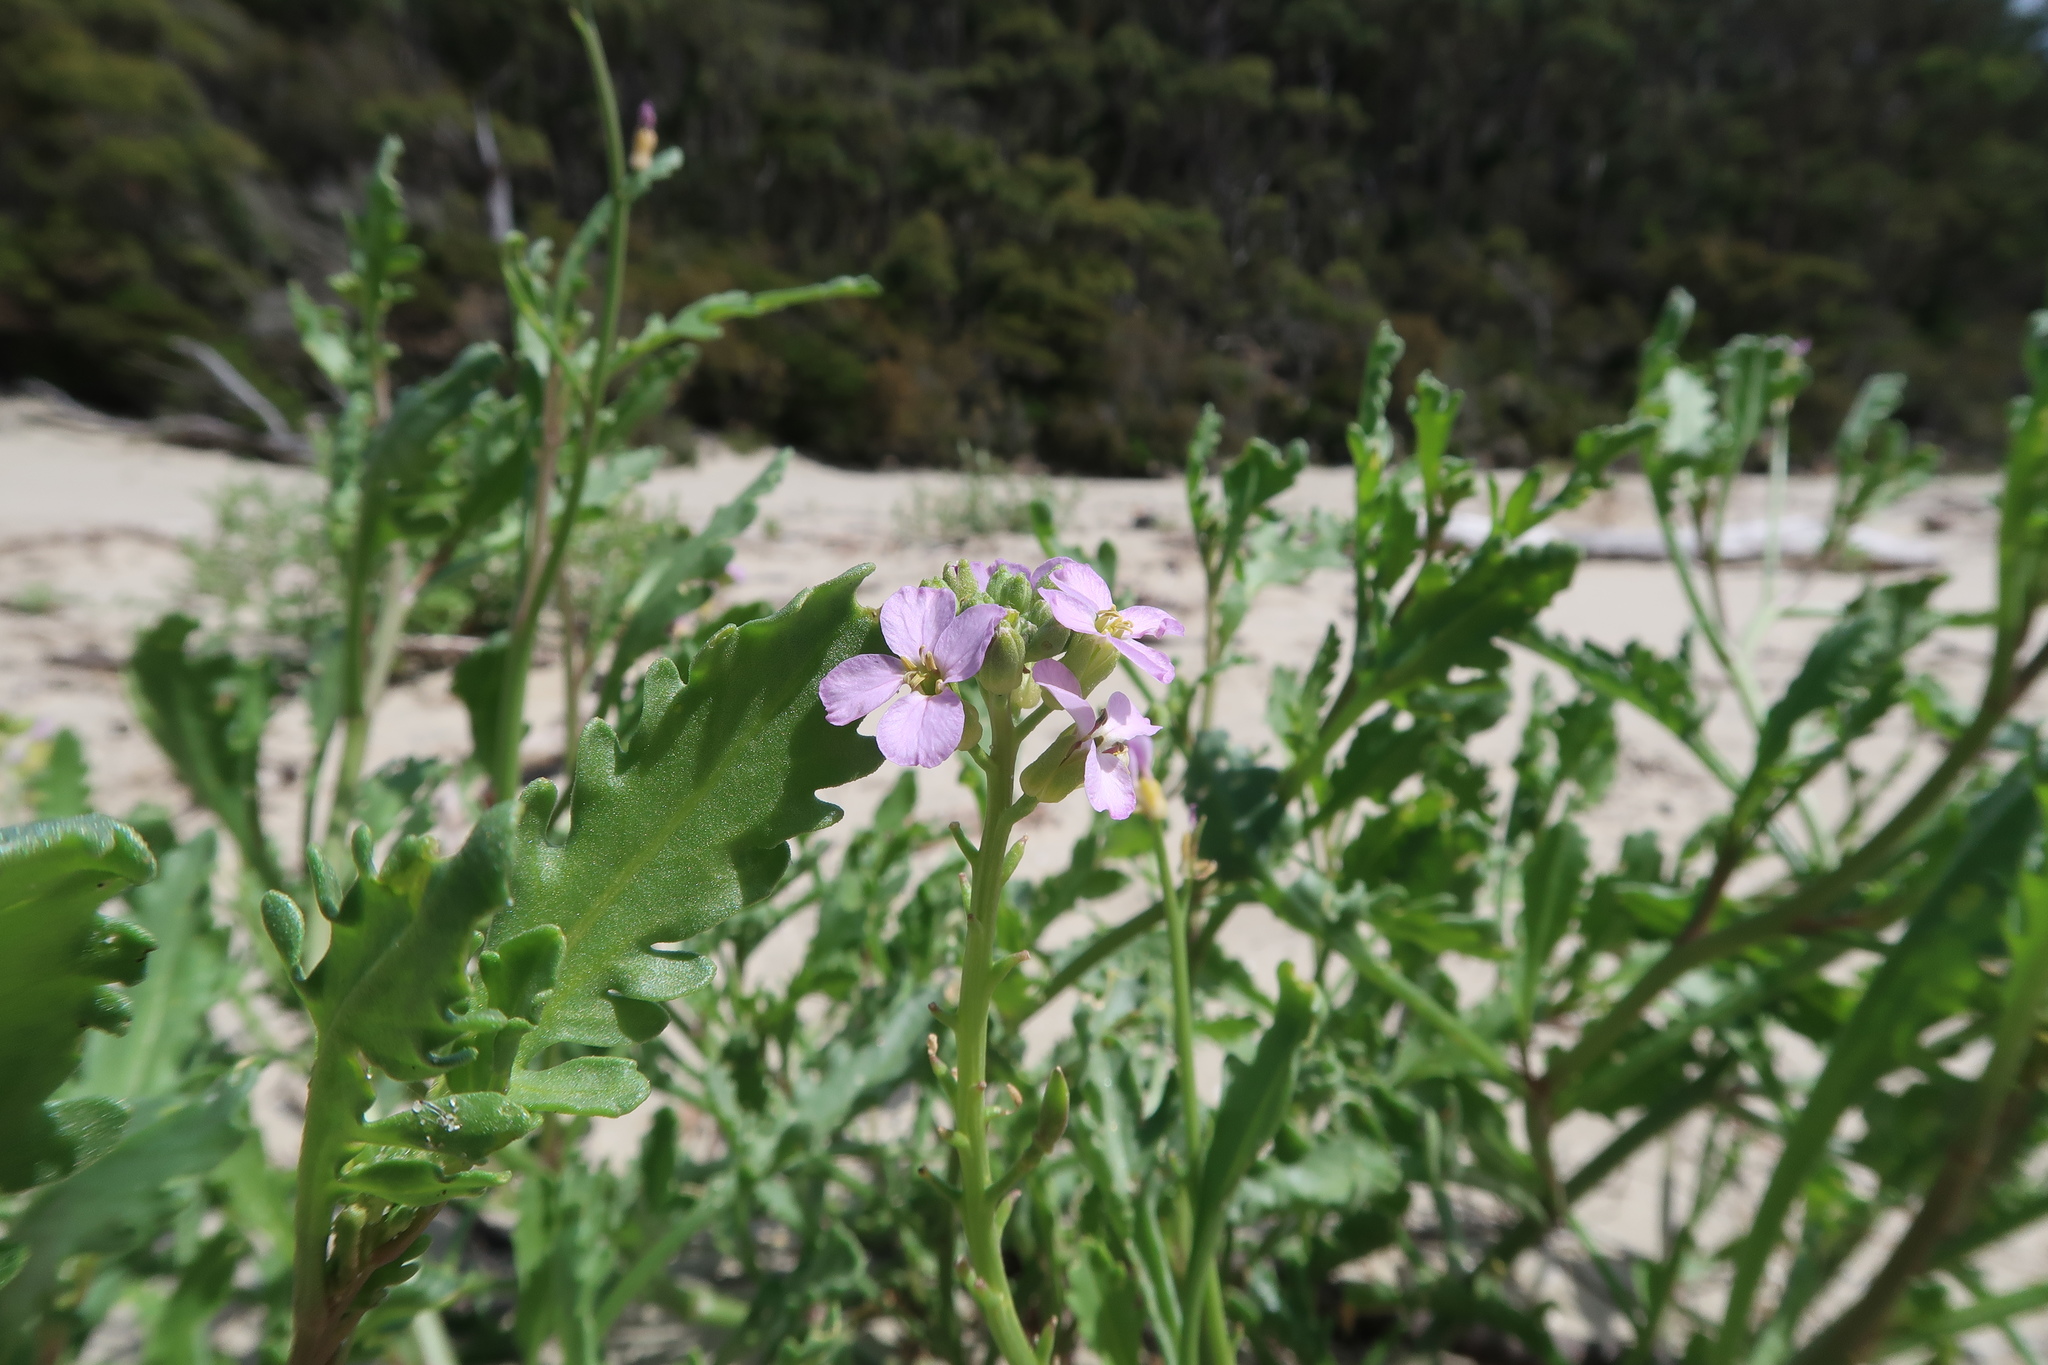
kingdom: Plantae
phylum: Tracheophyta
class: Magnoliopsida
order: Brassicales
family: Brassicaceae
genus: Cakile
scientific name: Cakile maritima
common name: Sea rocket
